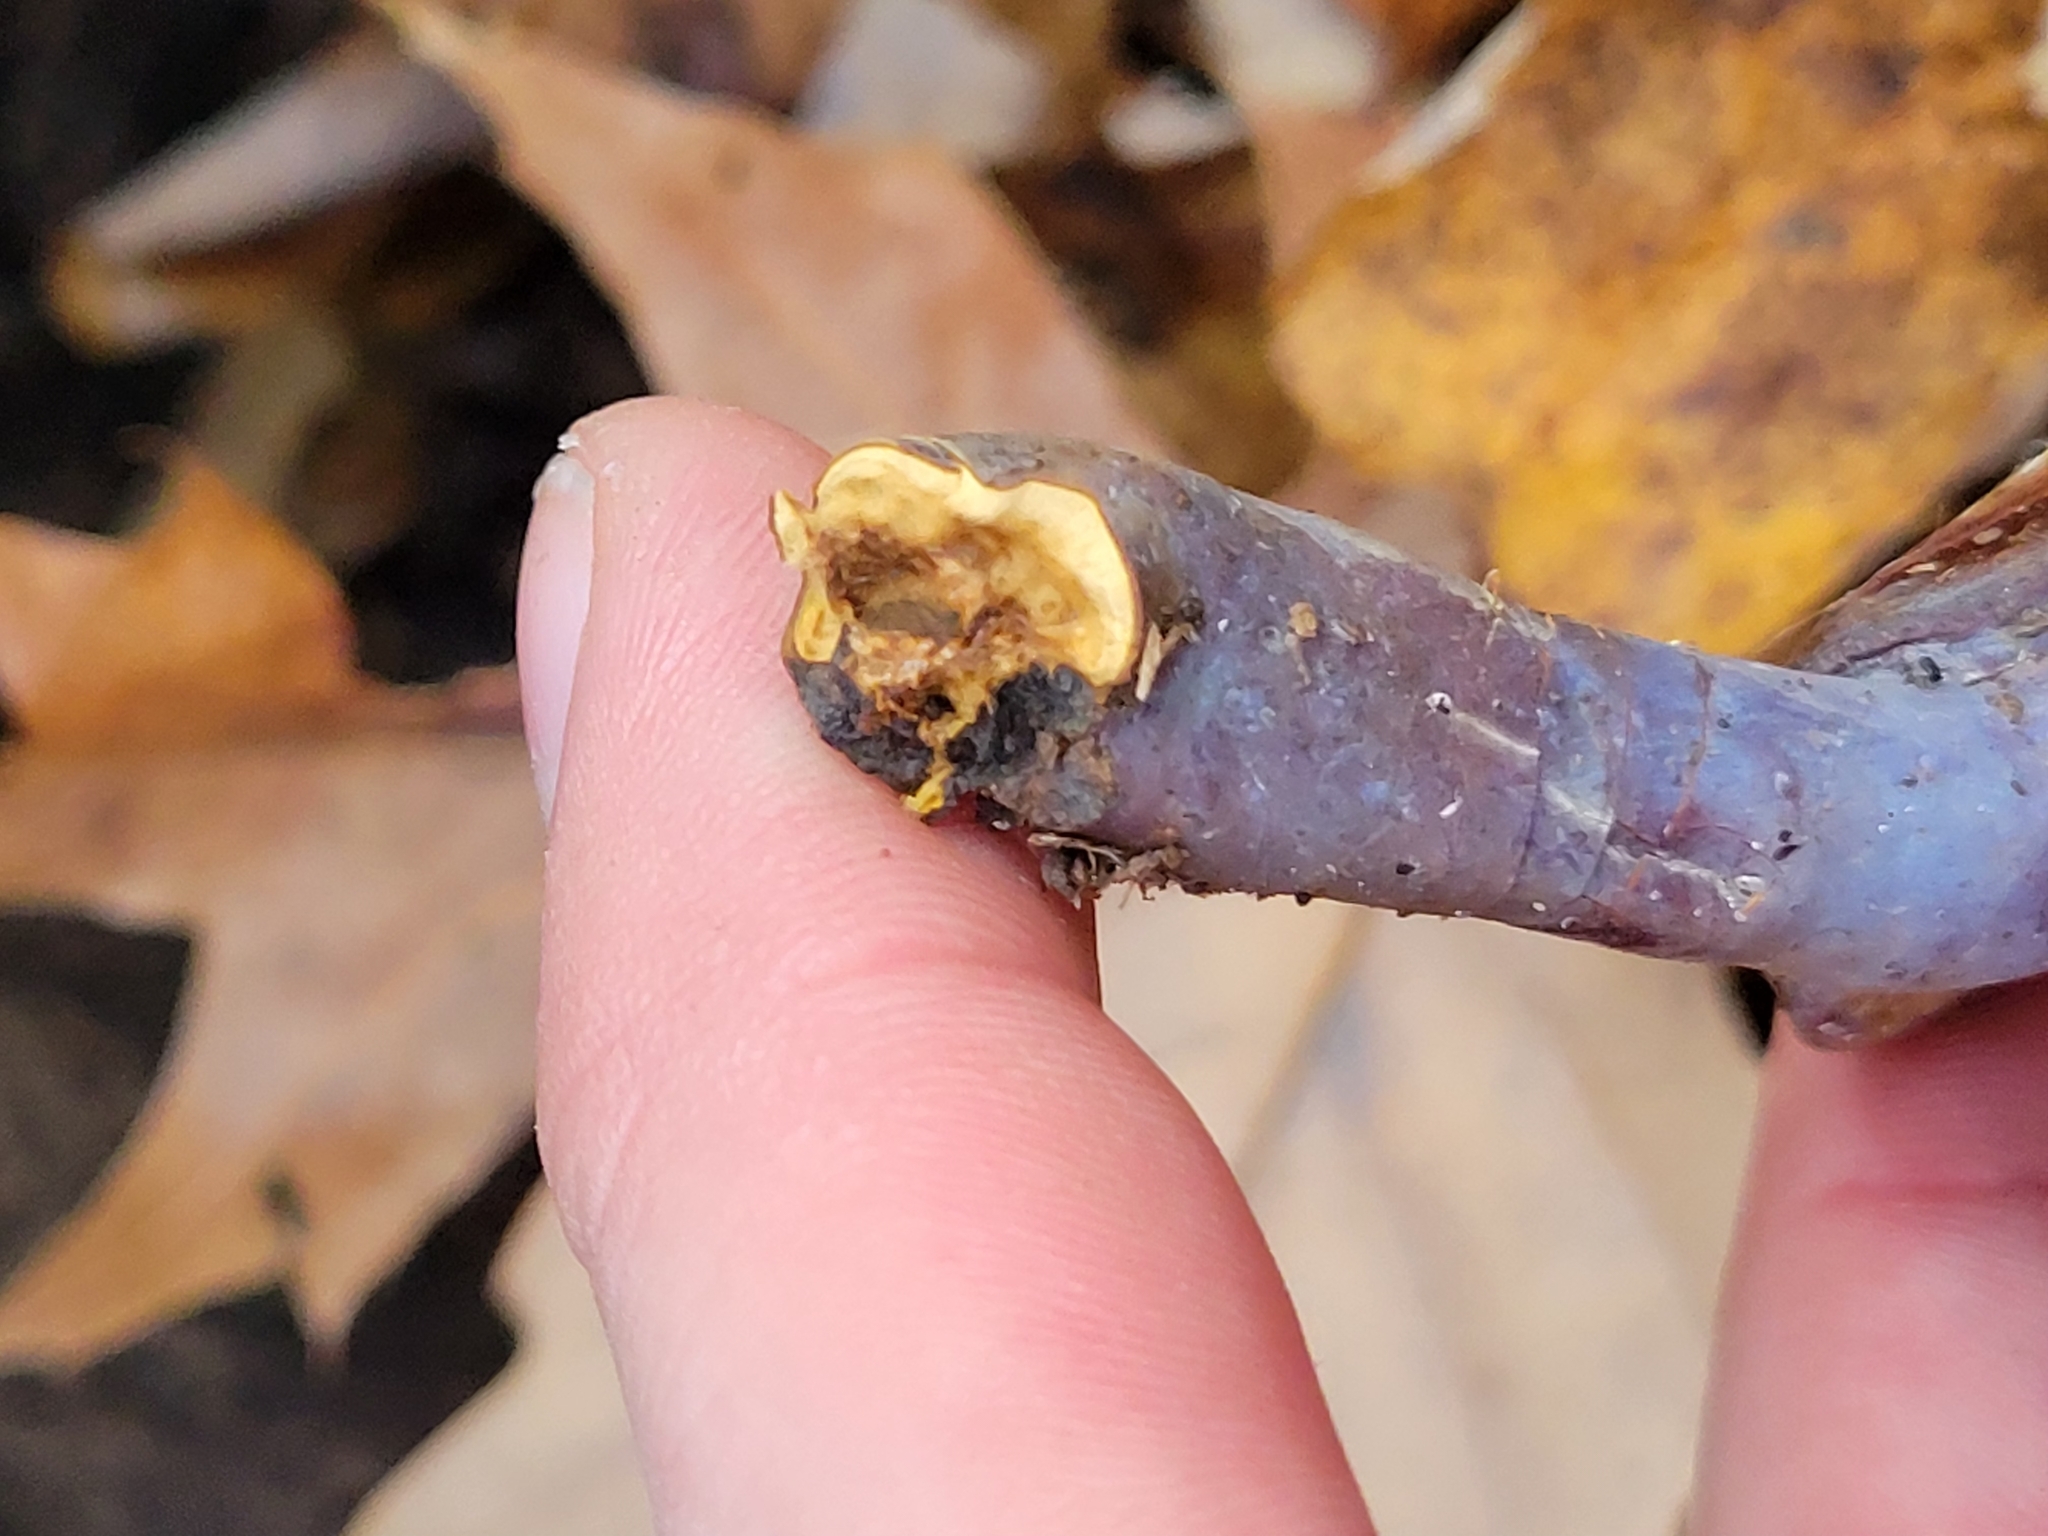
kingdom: Fungi
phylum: Basidiomycota
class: Agaricomycetes
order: Polyporales
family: Polyporaceae
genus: Ganoderma
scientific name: Ganoderma curtisii
